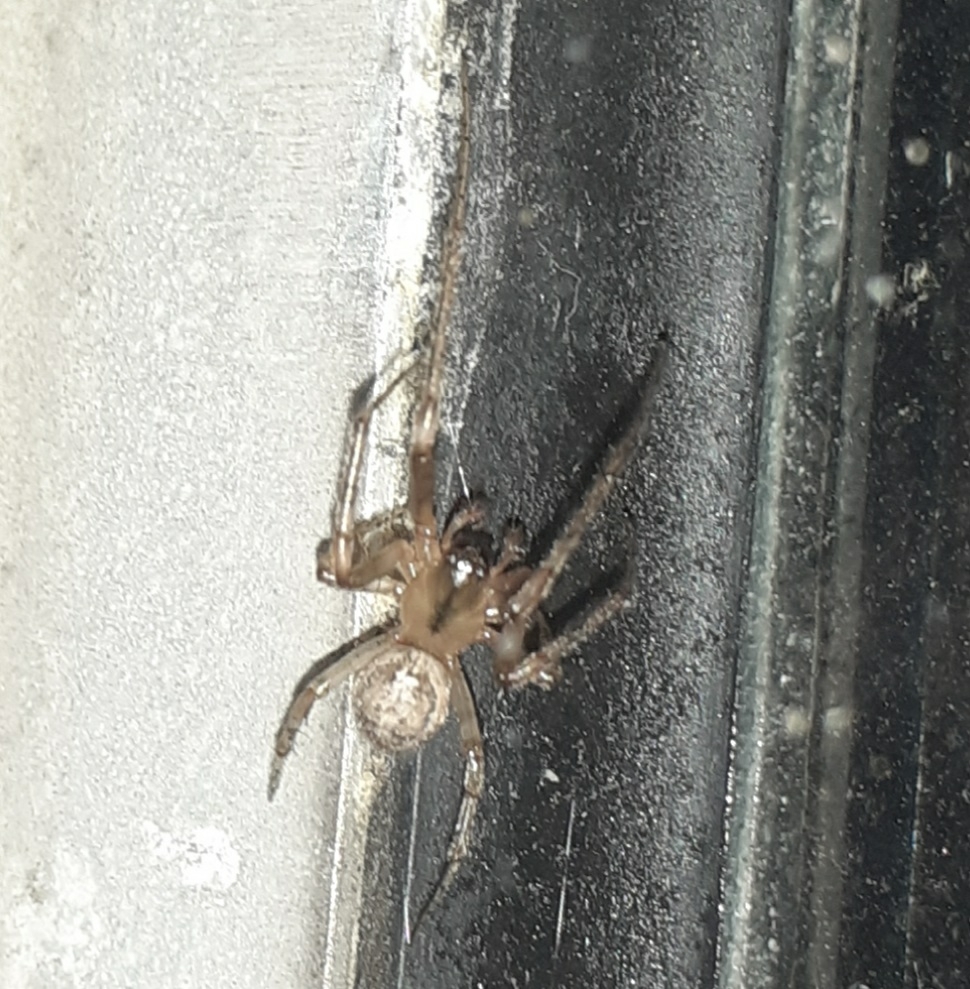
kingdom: Animalia
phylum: Arthropoda
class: Arachnida
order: Araneae
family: Araneidae
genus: Zygiella
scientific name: Zygiella x-notata
